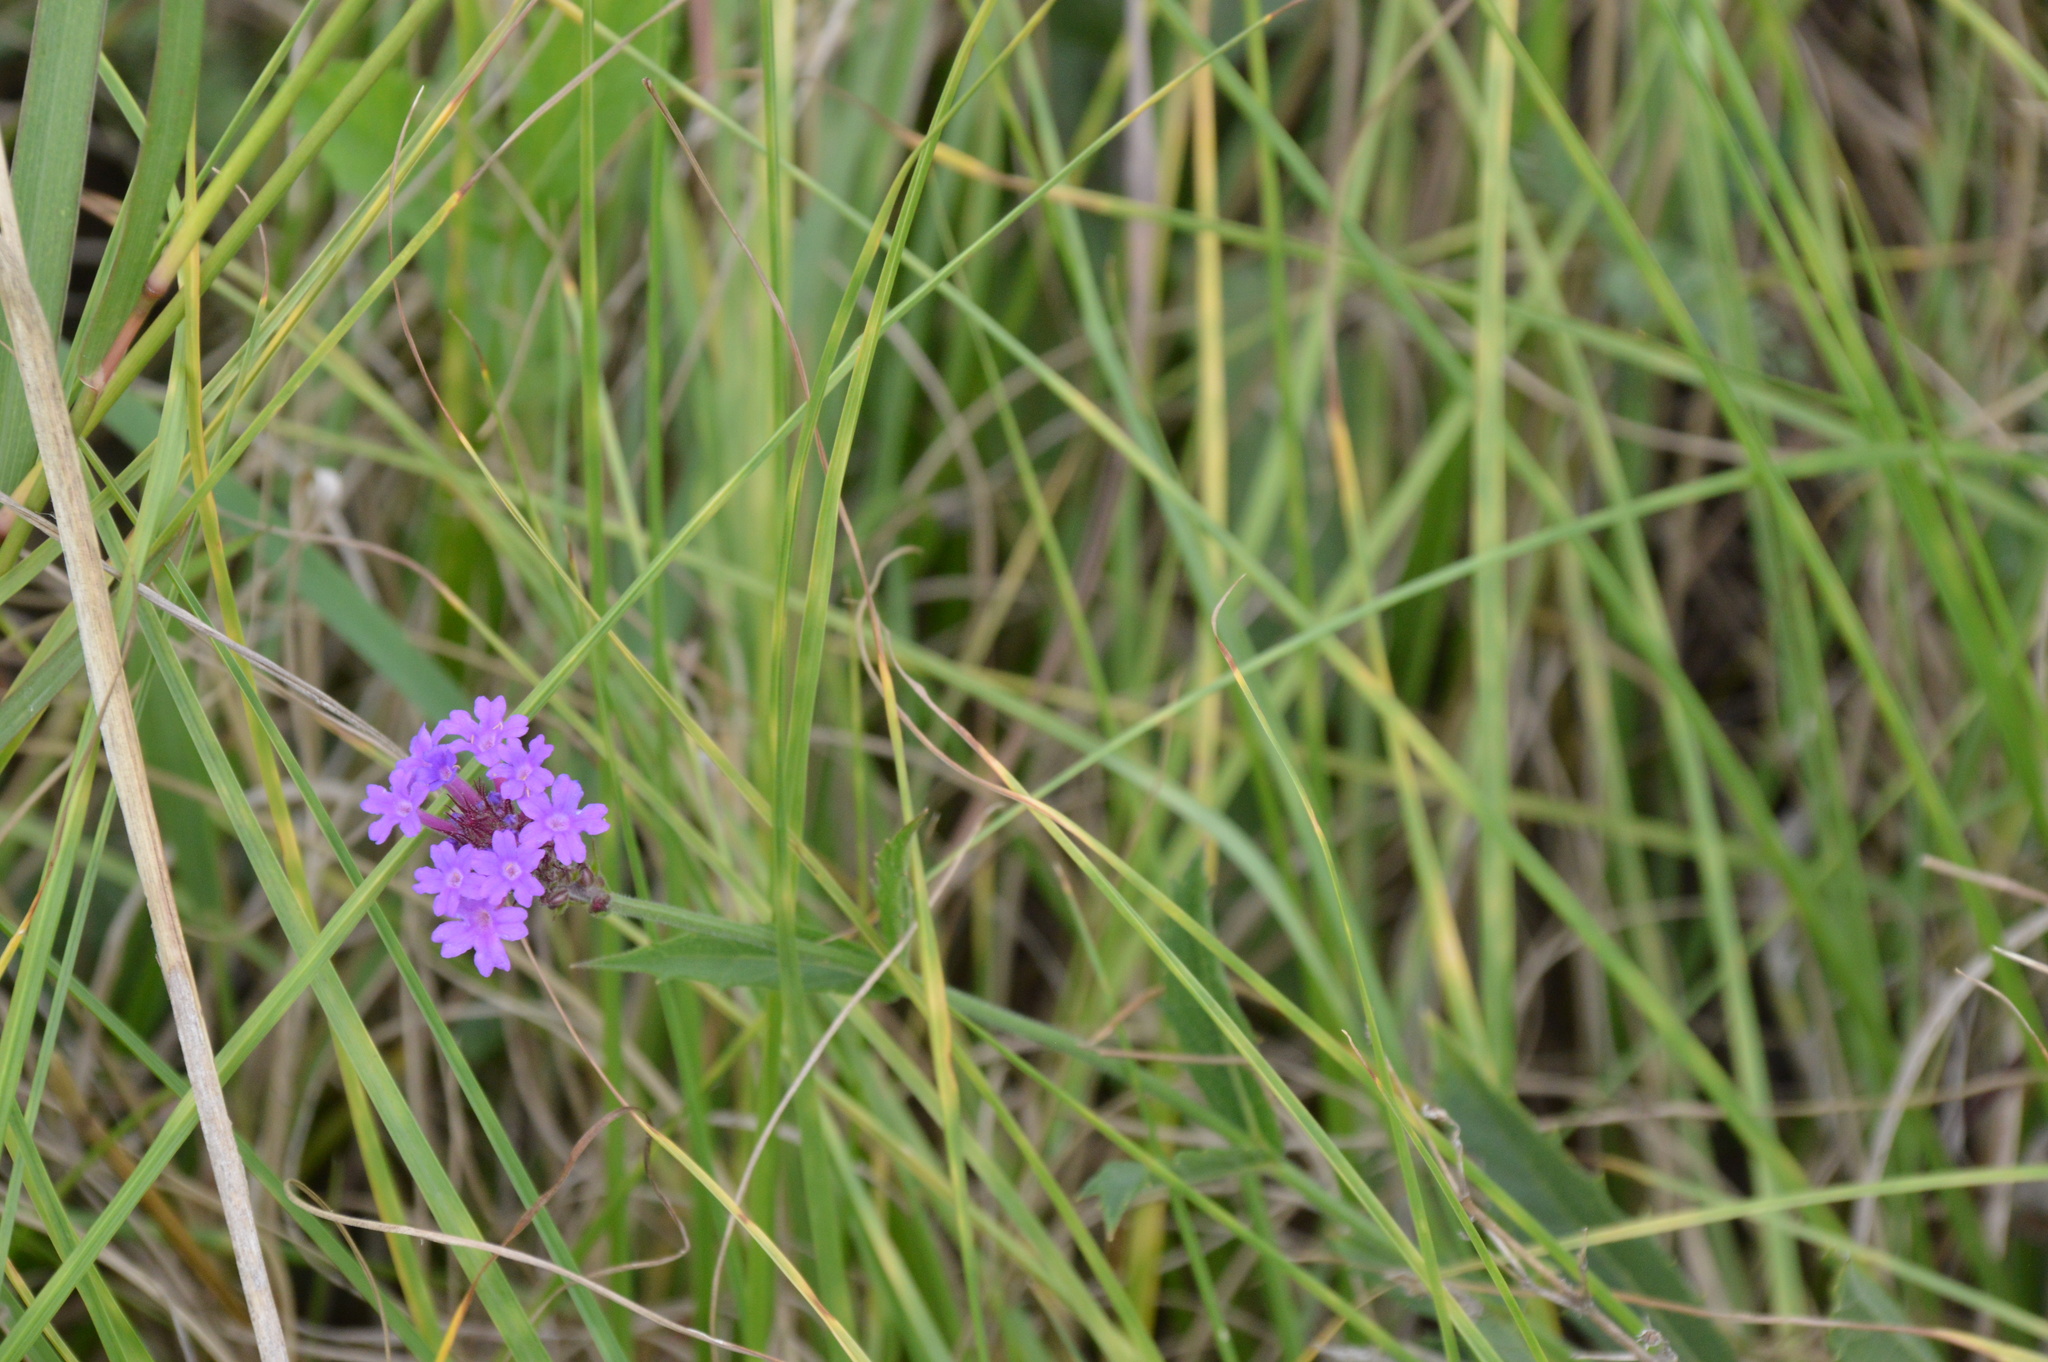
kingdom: Plantae
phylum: Tracheophyta
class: Magnoliopsida
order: Lamiales
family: Verbenaceae
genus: Verbena
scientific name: Verbena rigida
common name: Slender vervain
